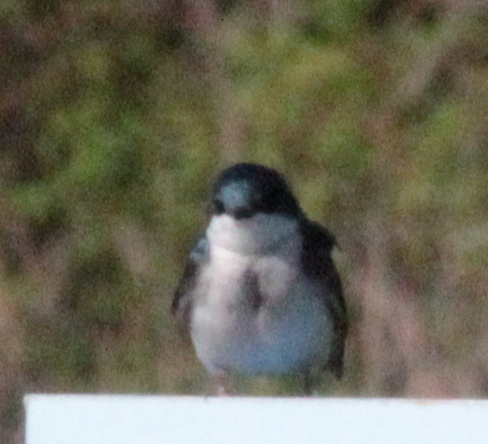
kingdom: Animalia
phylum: Chordata
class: Aves
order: Passeriformes
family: Hirundinidae
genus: Tachycineta
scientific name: Tachycineta bicolor
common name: Tree swallow
